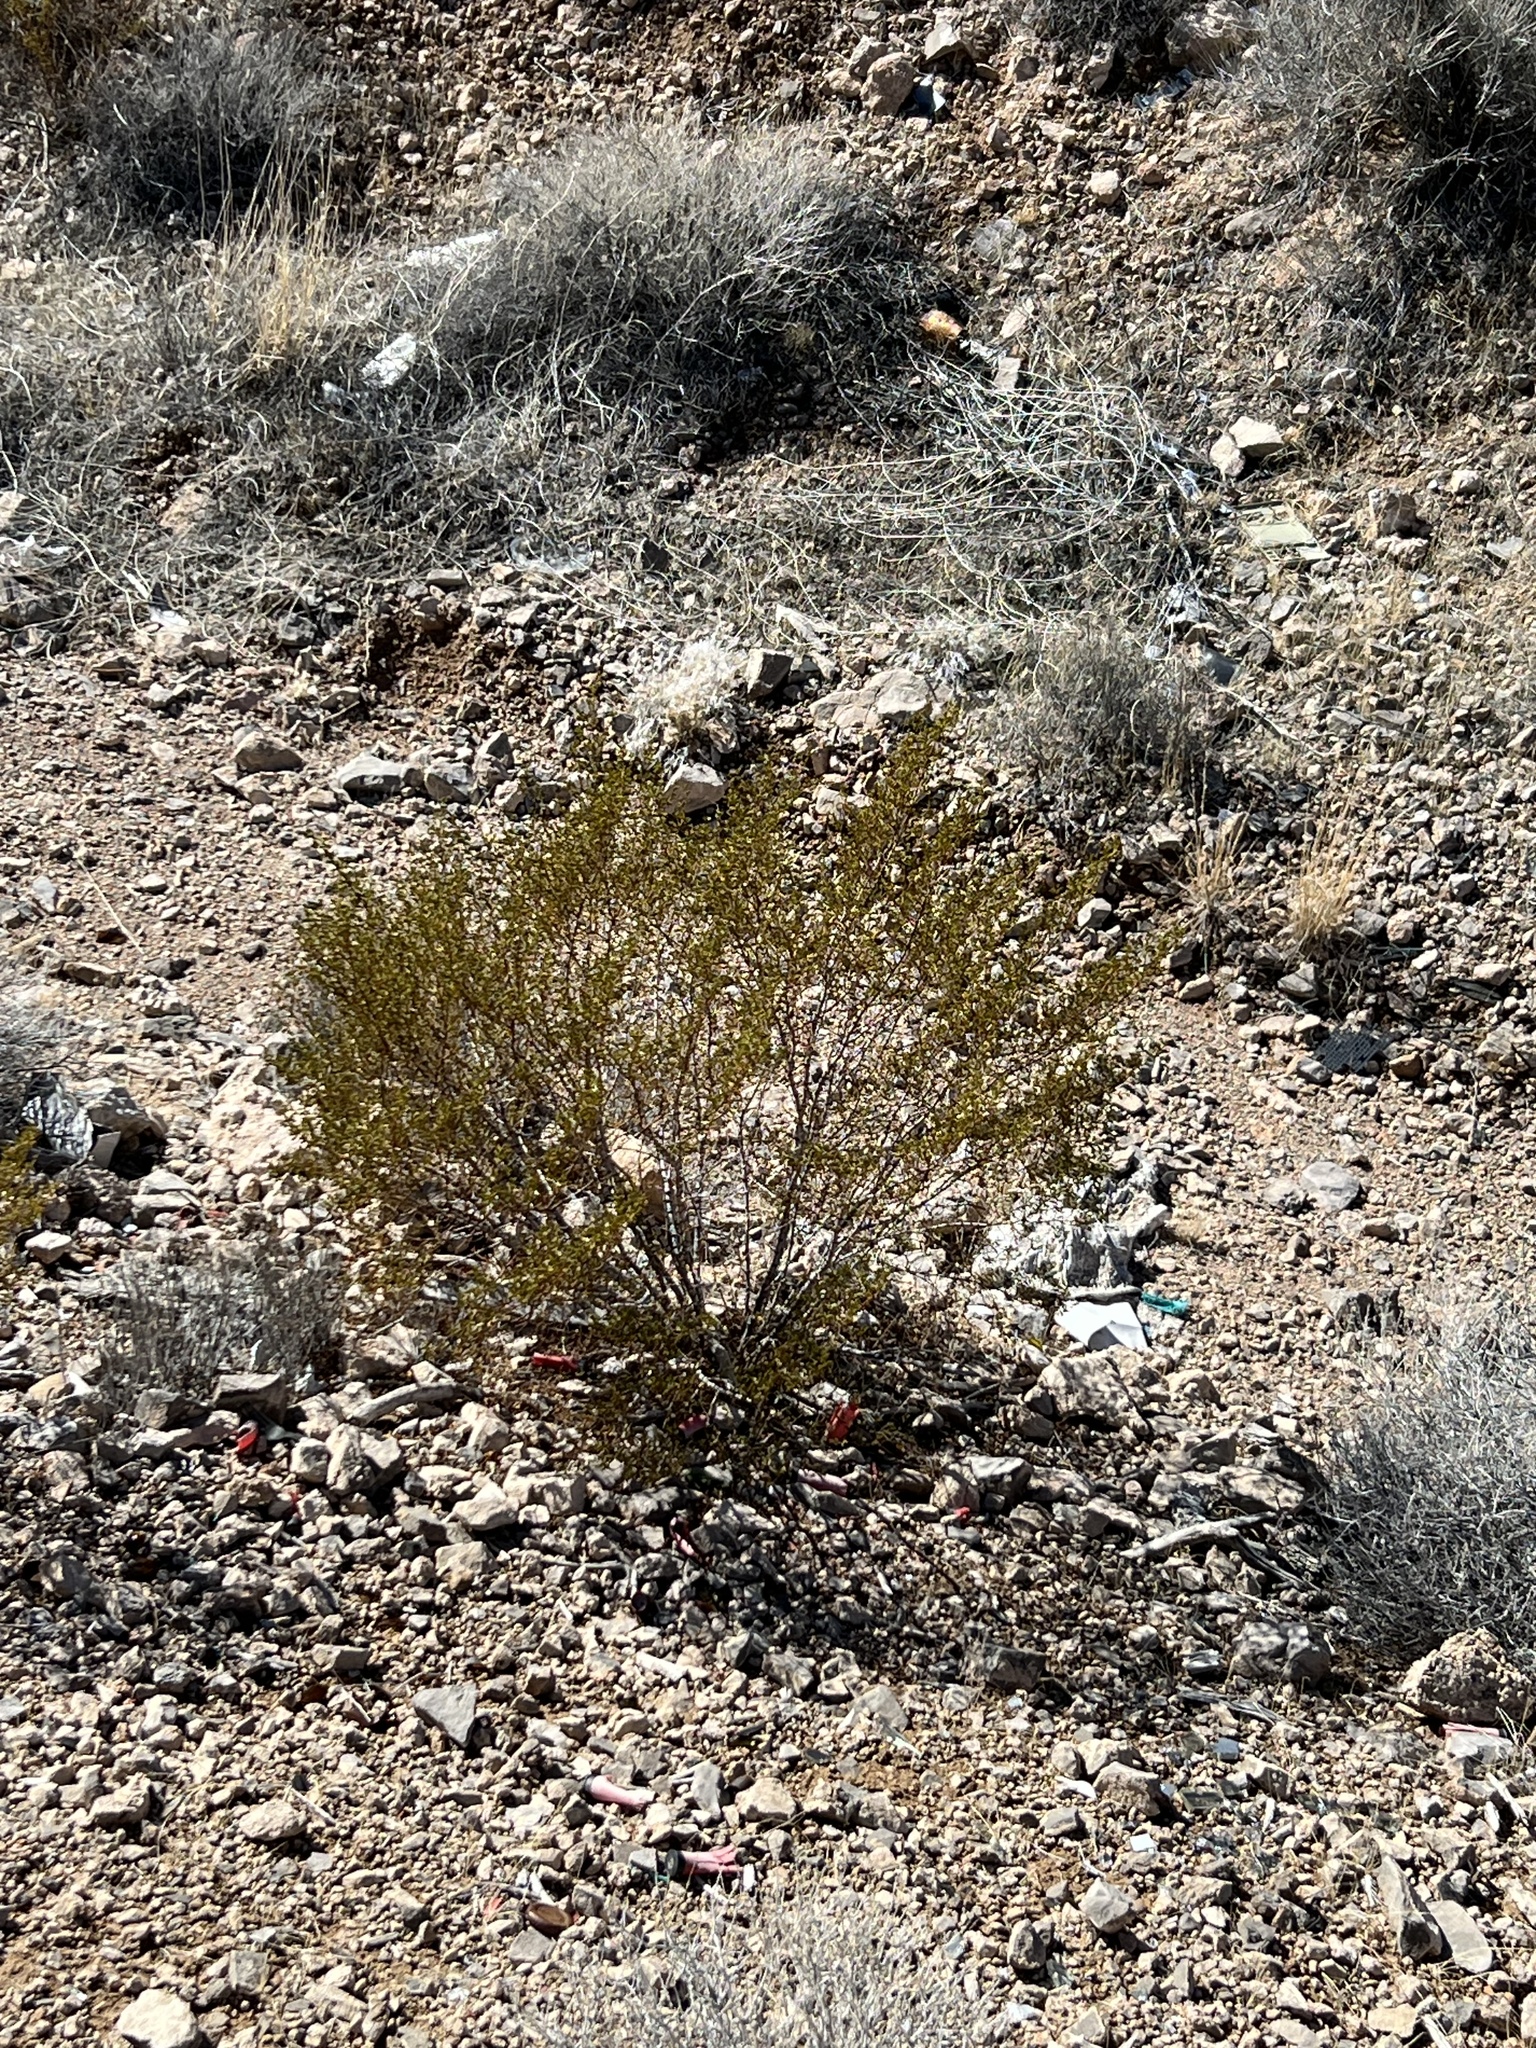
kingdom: Plantae
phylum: Tracheophyta
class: Magnoliopsida
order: Zygophyllales
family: Zygophyllaceae
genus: Larrea
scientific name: Larrea tridentata
